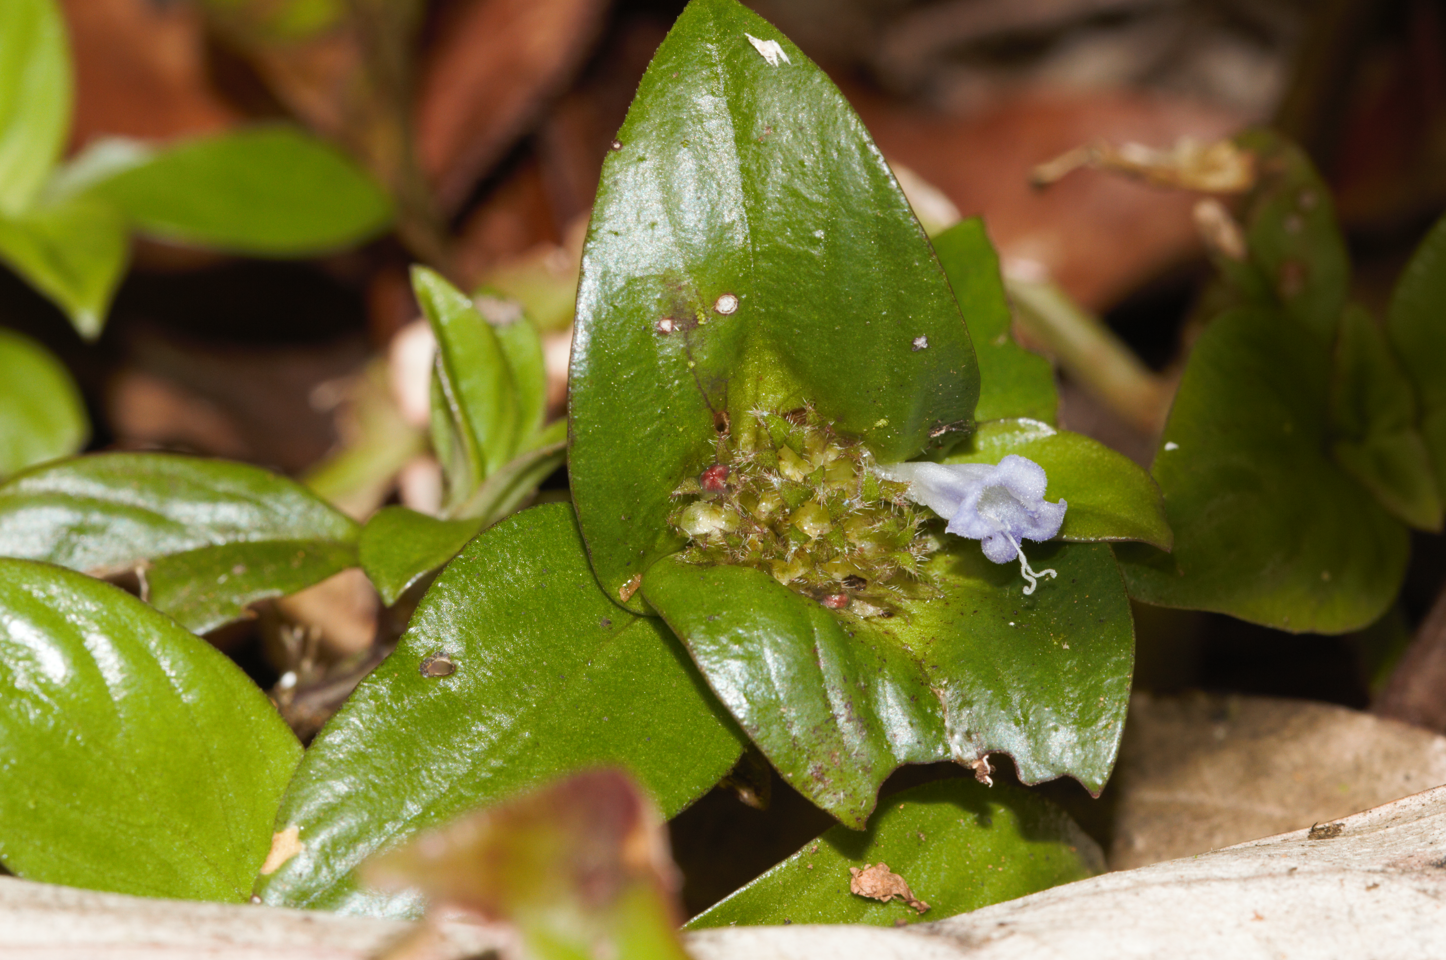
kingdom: Plantae
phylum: Tracheophyta
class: Magnoliopsida
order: Gentianales
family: Rubiaceae
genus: Spermacoce
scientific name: Spermacoce alata
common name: Winged false buttonweed
